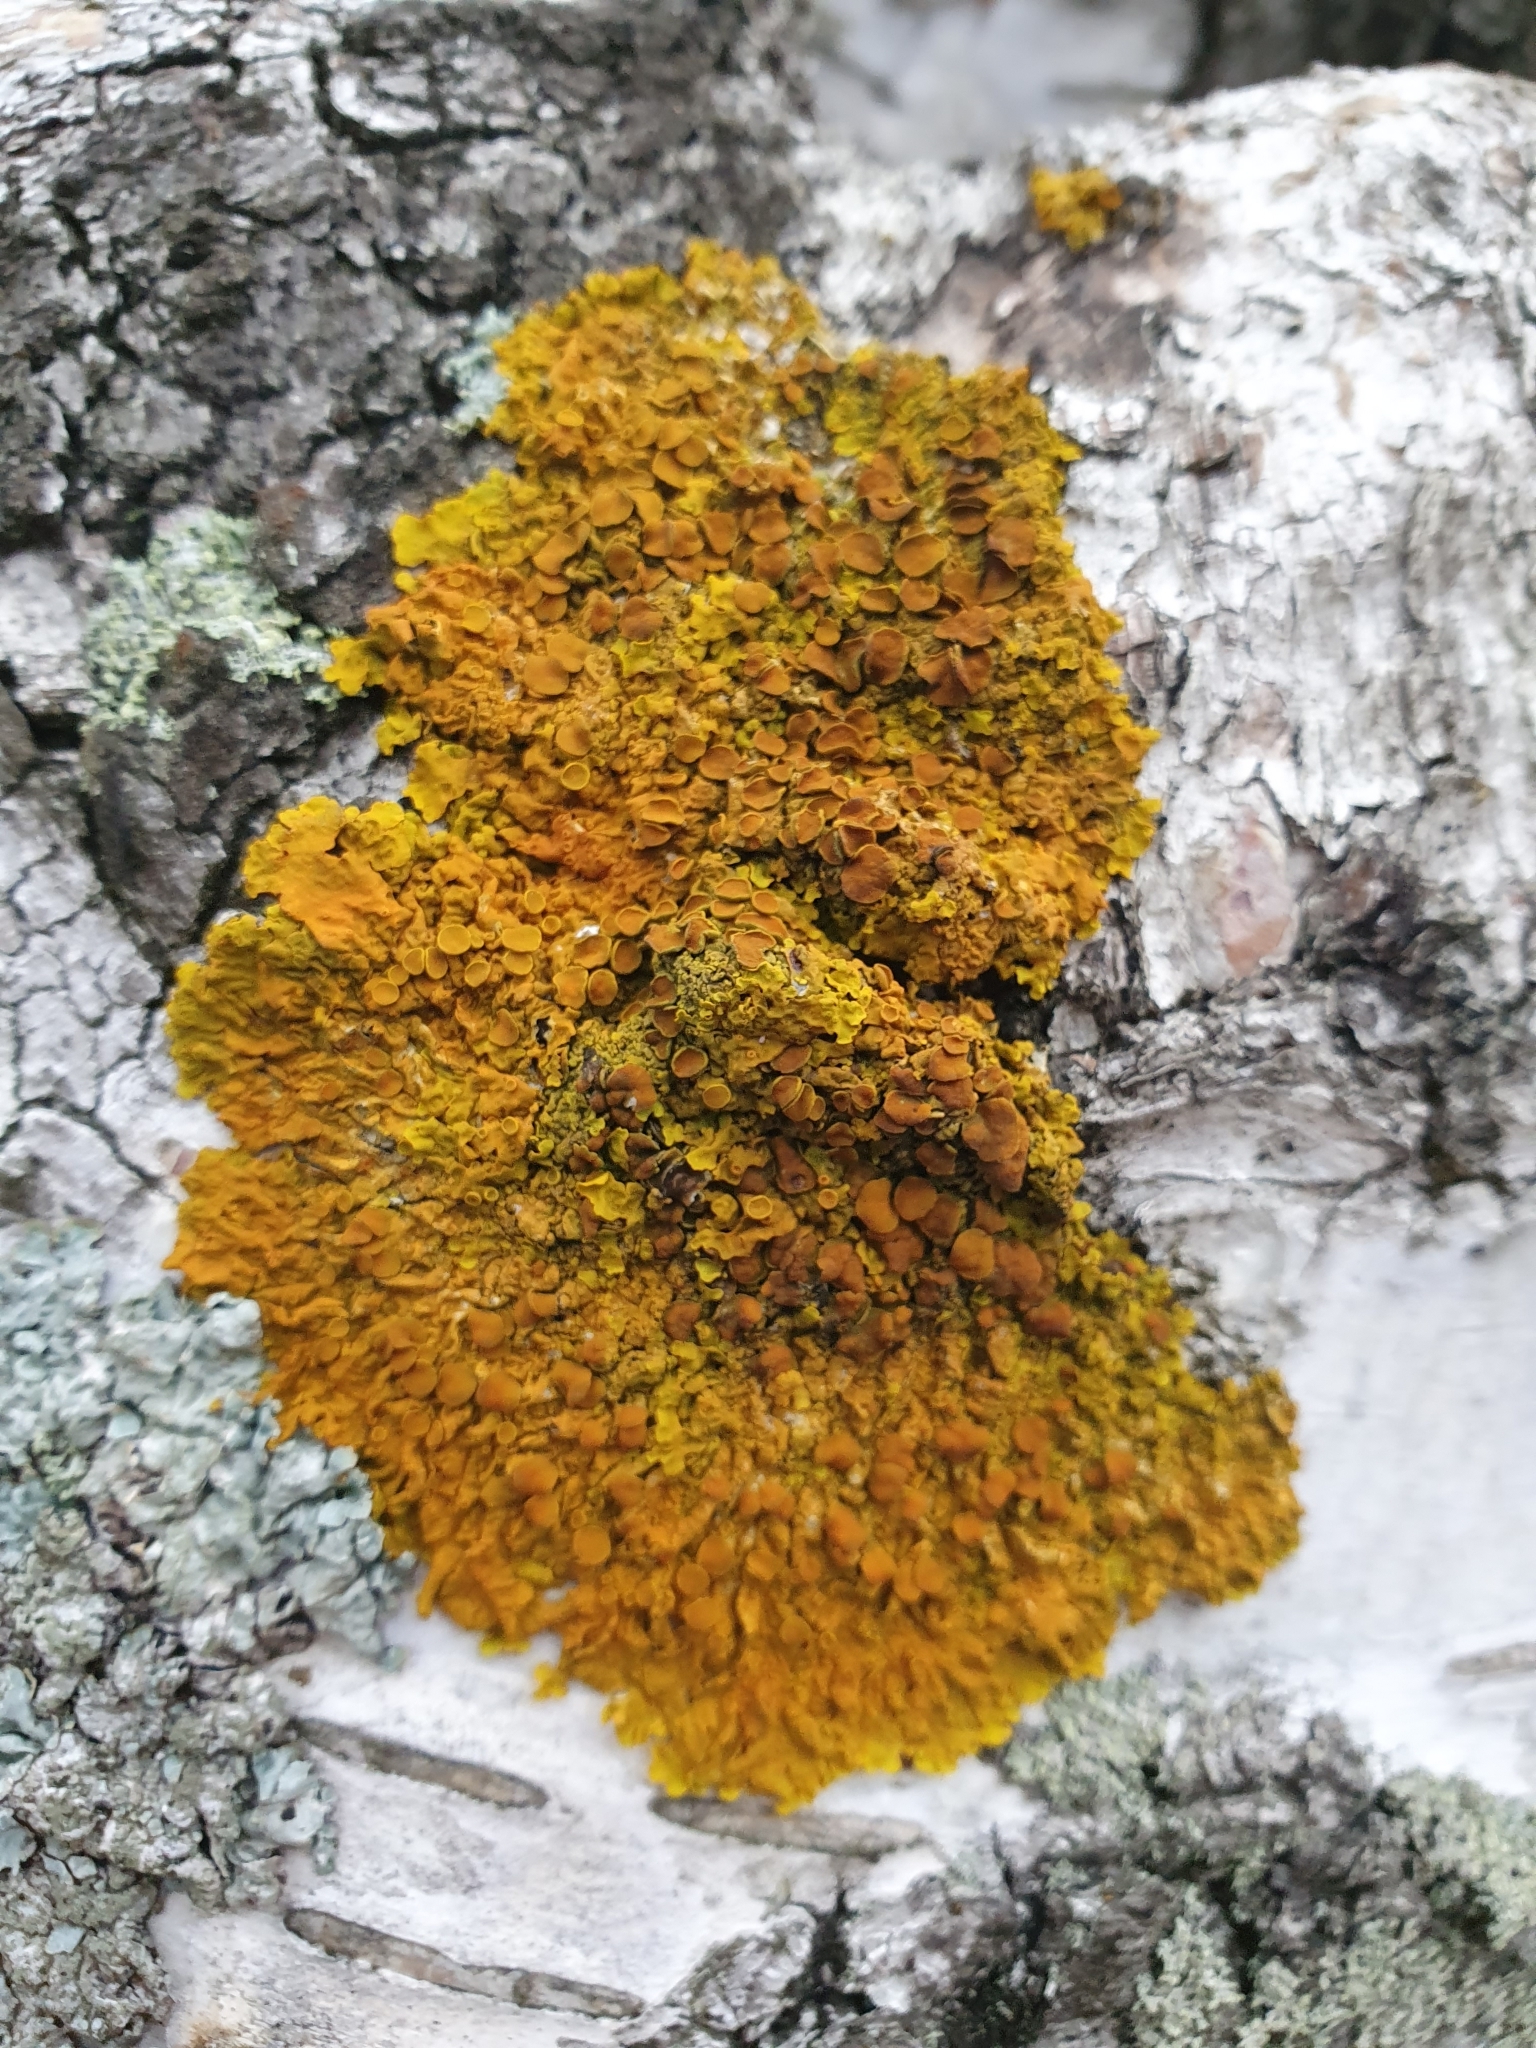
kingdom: Fungi
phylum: Ascomycota
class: Lecanoromycetes
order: Teloschistales
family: Teloschistaceae
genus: Xanthoria
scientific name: Xanthoria parietina
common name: Common orange lichen
